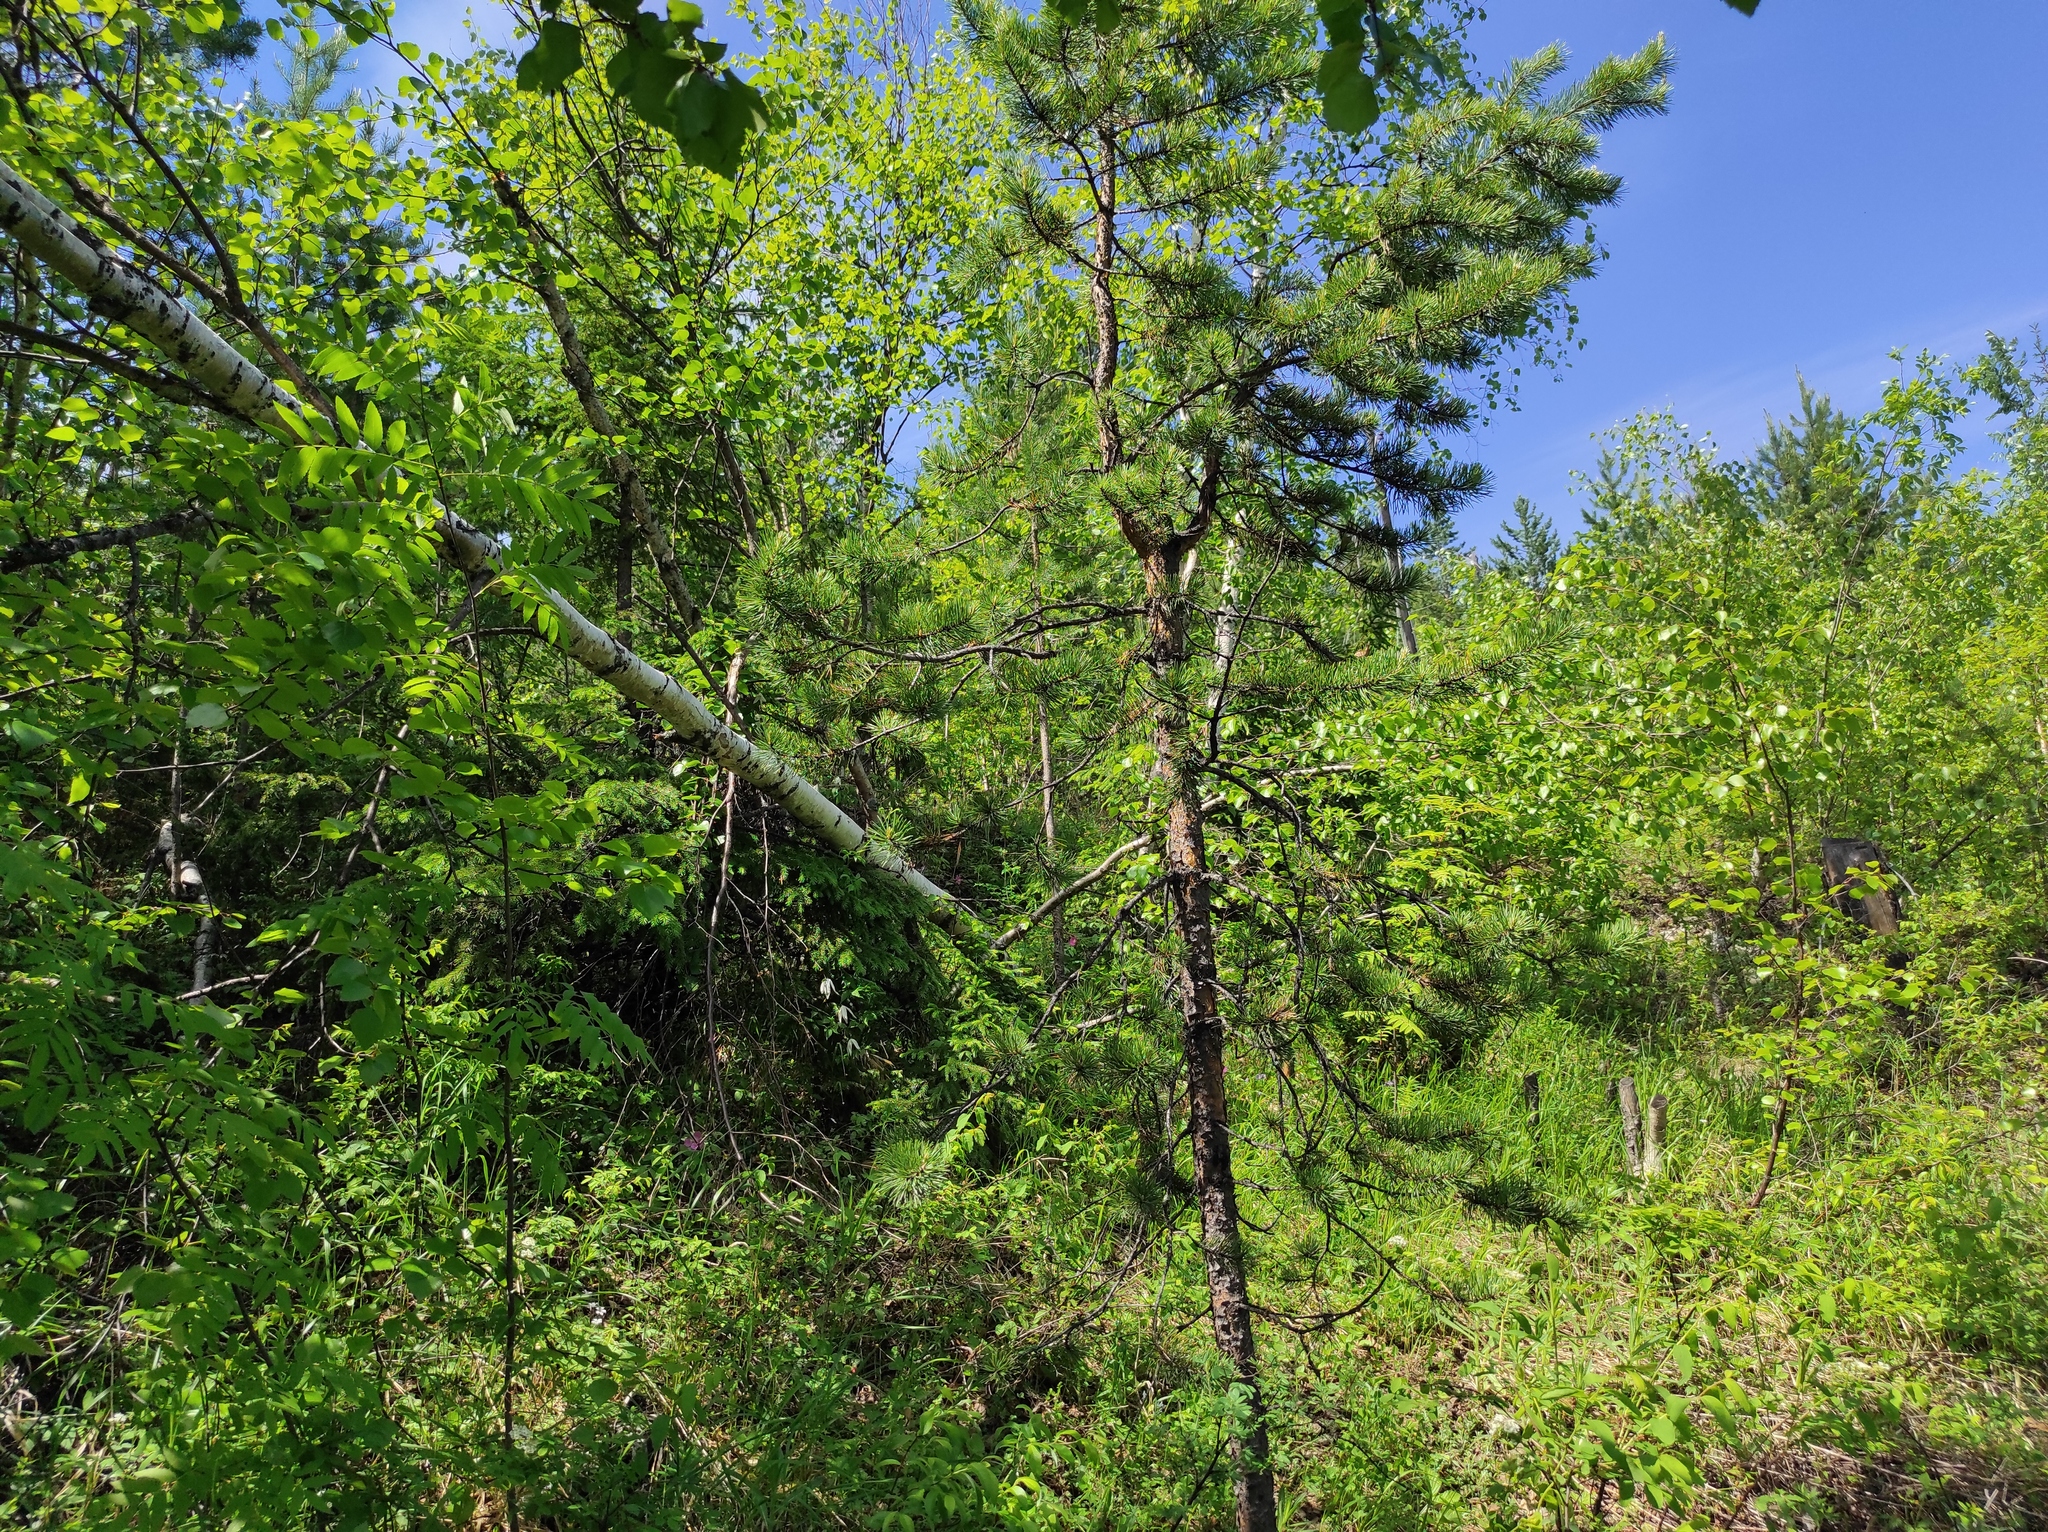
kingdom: Plantae
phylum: Tracheophyta
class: Pinopsida
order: Pinales
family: Pinaceae
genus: Pinus
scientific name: Pinus sylvestris
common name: Scots pine
